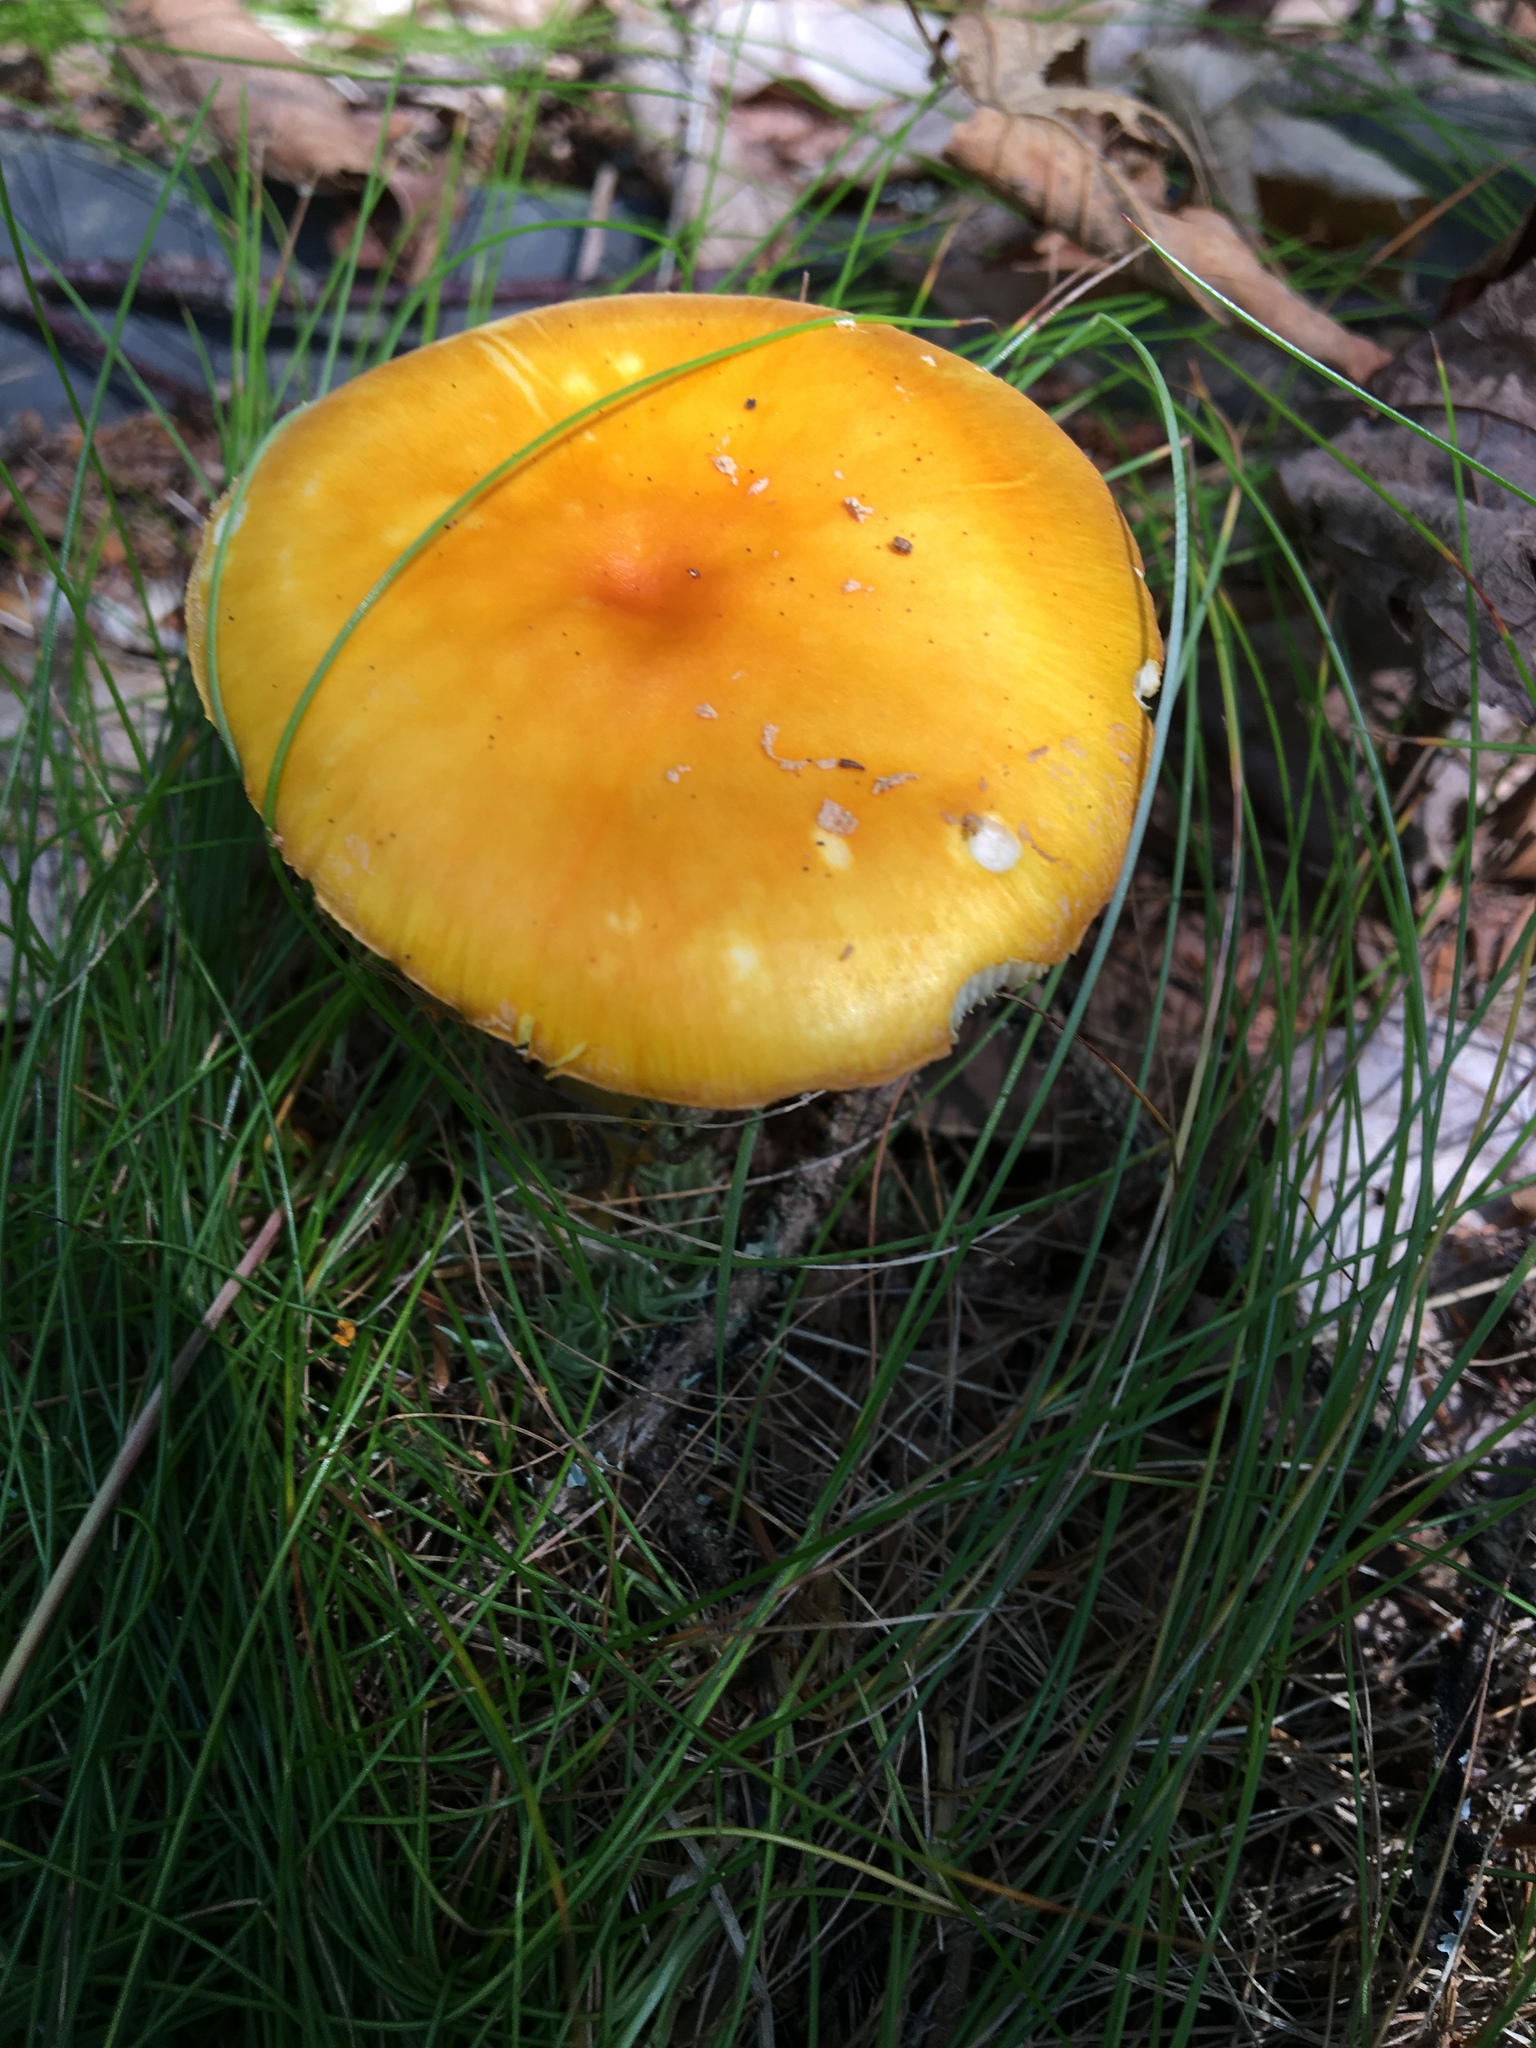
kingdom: Fungi
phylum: Basidiomycota
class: Agaricomycetes
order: Agaricales
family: Amanitaceae
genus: Amanita
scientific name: Amanita muscaria
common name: Fly agaric
